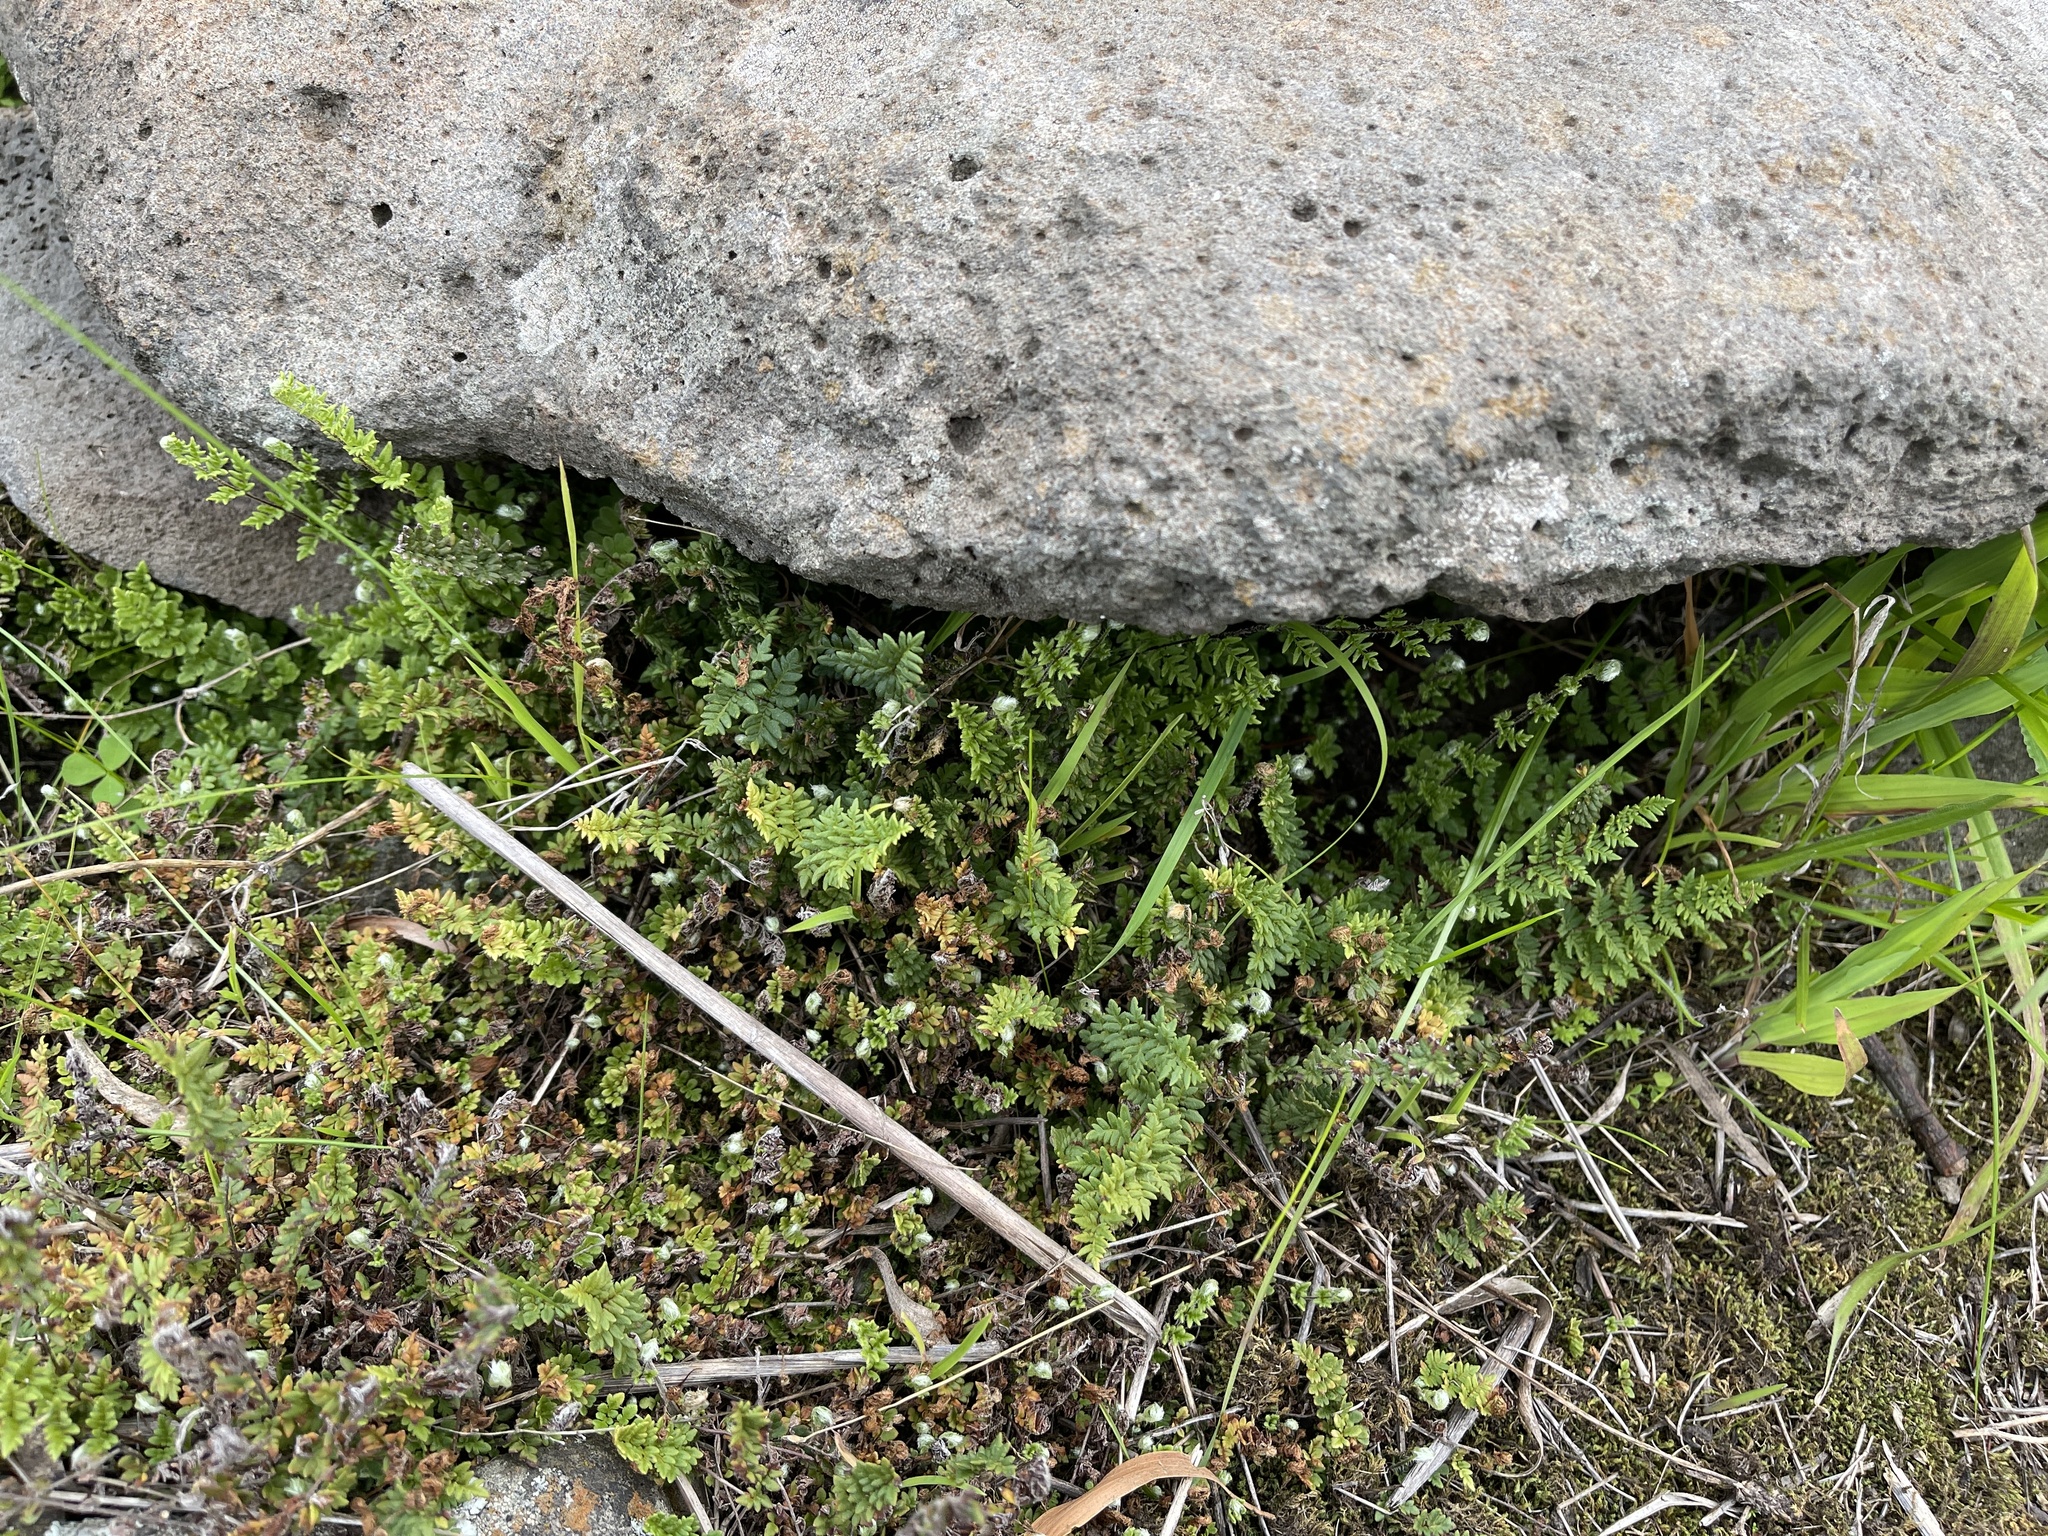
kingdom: Plantae
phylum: Tracheophyta
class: Polypodiopsida
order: Polypodiales
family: Pteridaceae
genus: Cheilanthes
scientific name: Cheilanthes sieberi
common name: Mulga fern
